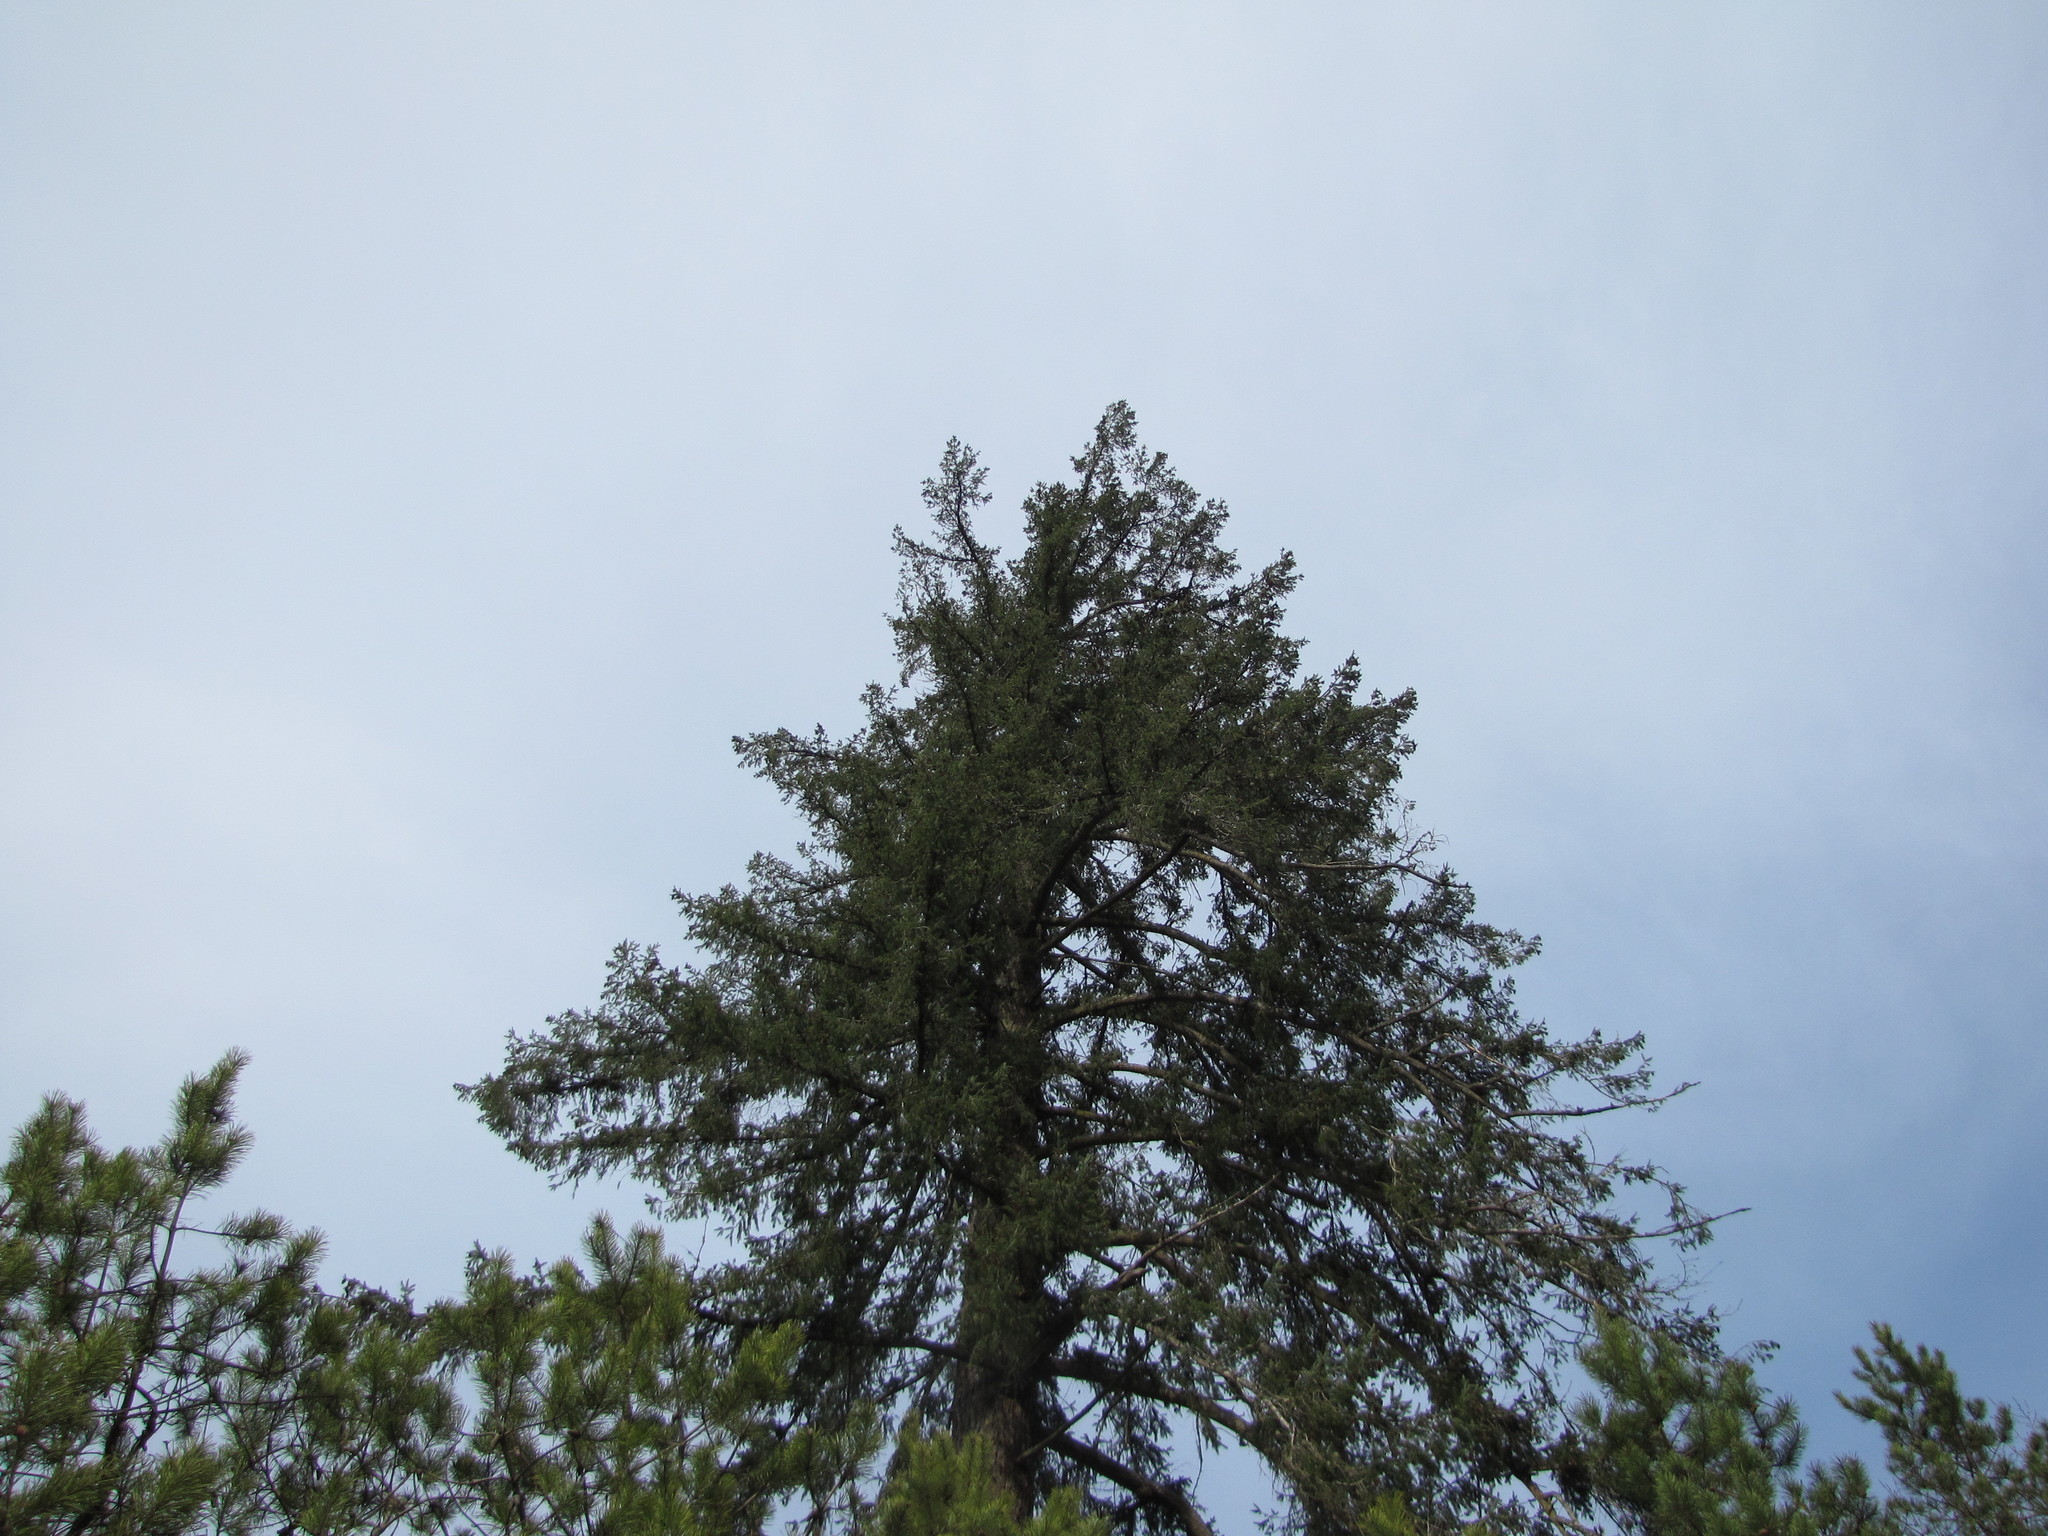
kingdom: Plantae
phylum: Tracheophyta
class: Pinopsida
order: Pinales
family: Pinaceae
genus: Pseudotsuga
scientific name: Pseudotsuga menziesii
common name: Douglas fir
